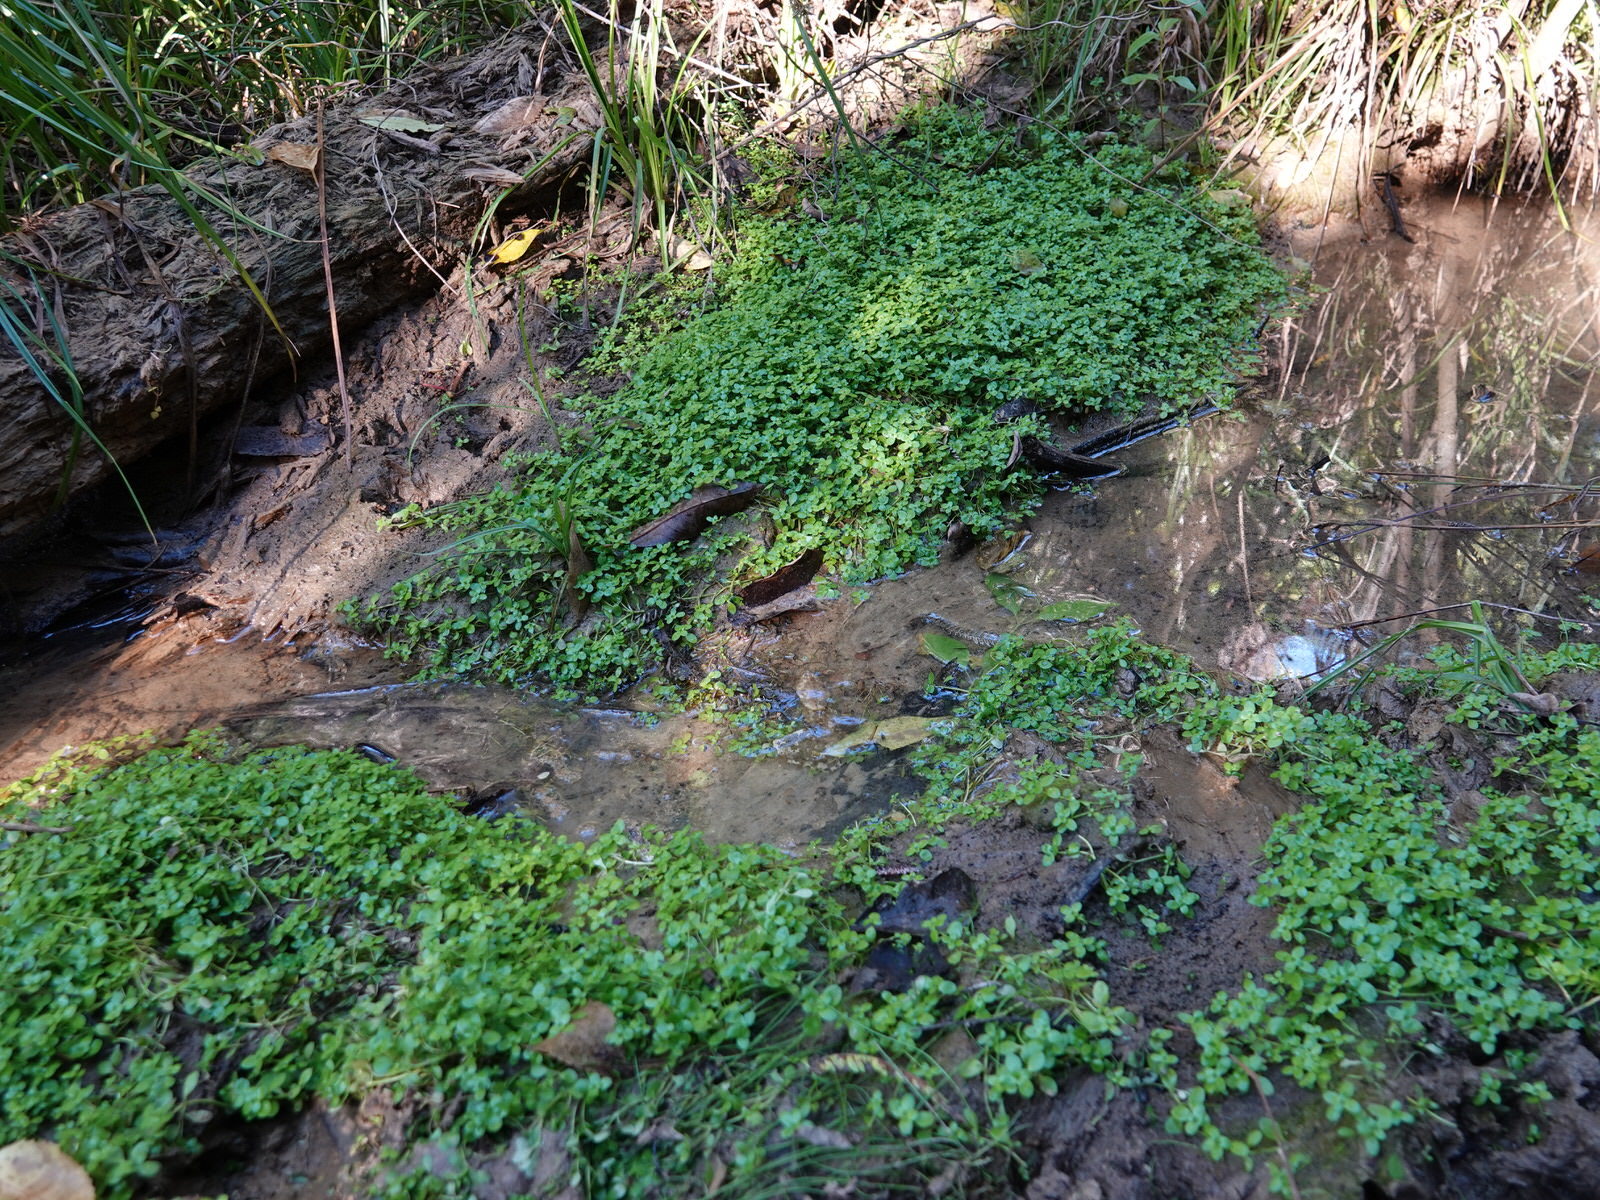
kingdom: Plantae
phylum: Tracheophyta
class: Magnoliopsida
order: Lamiales
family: Plantaginaceae
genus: Callitriche
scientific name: Callitriche stagnalis
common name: Common water-starwort
